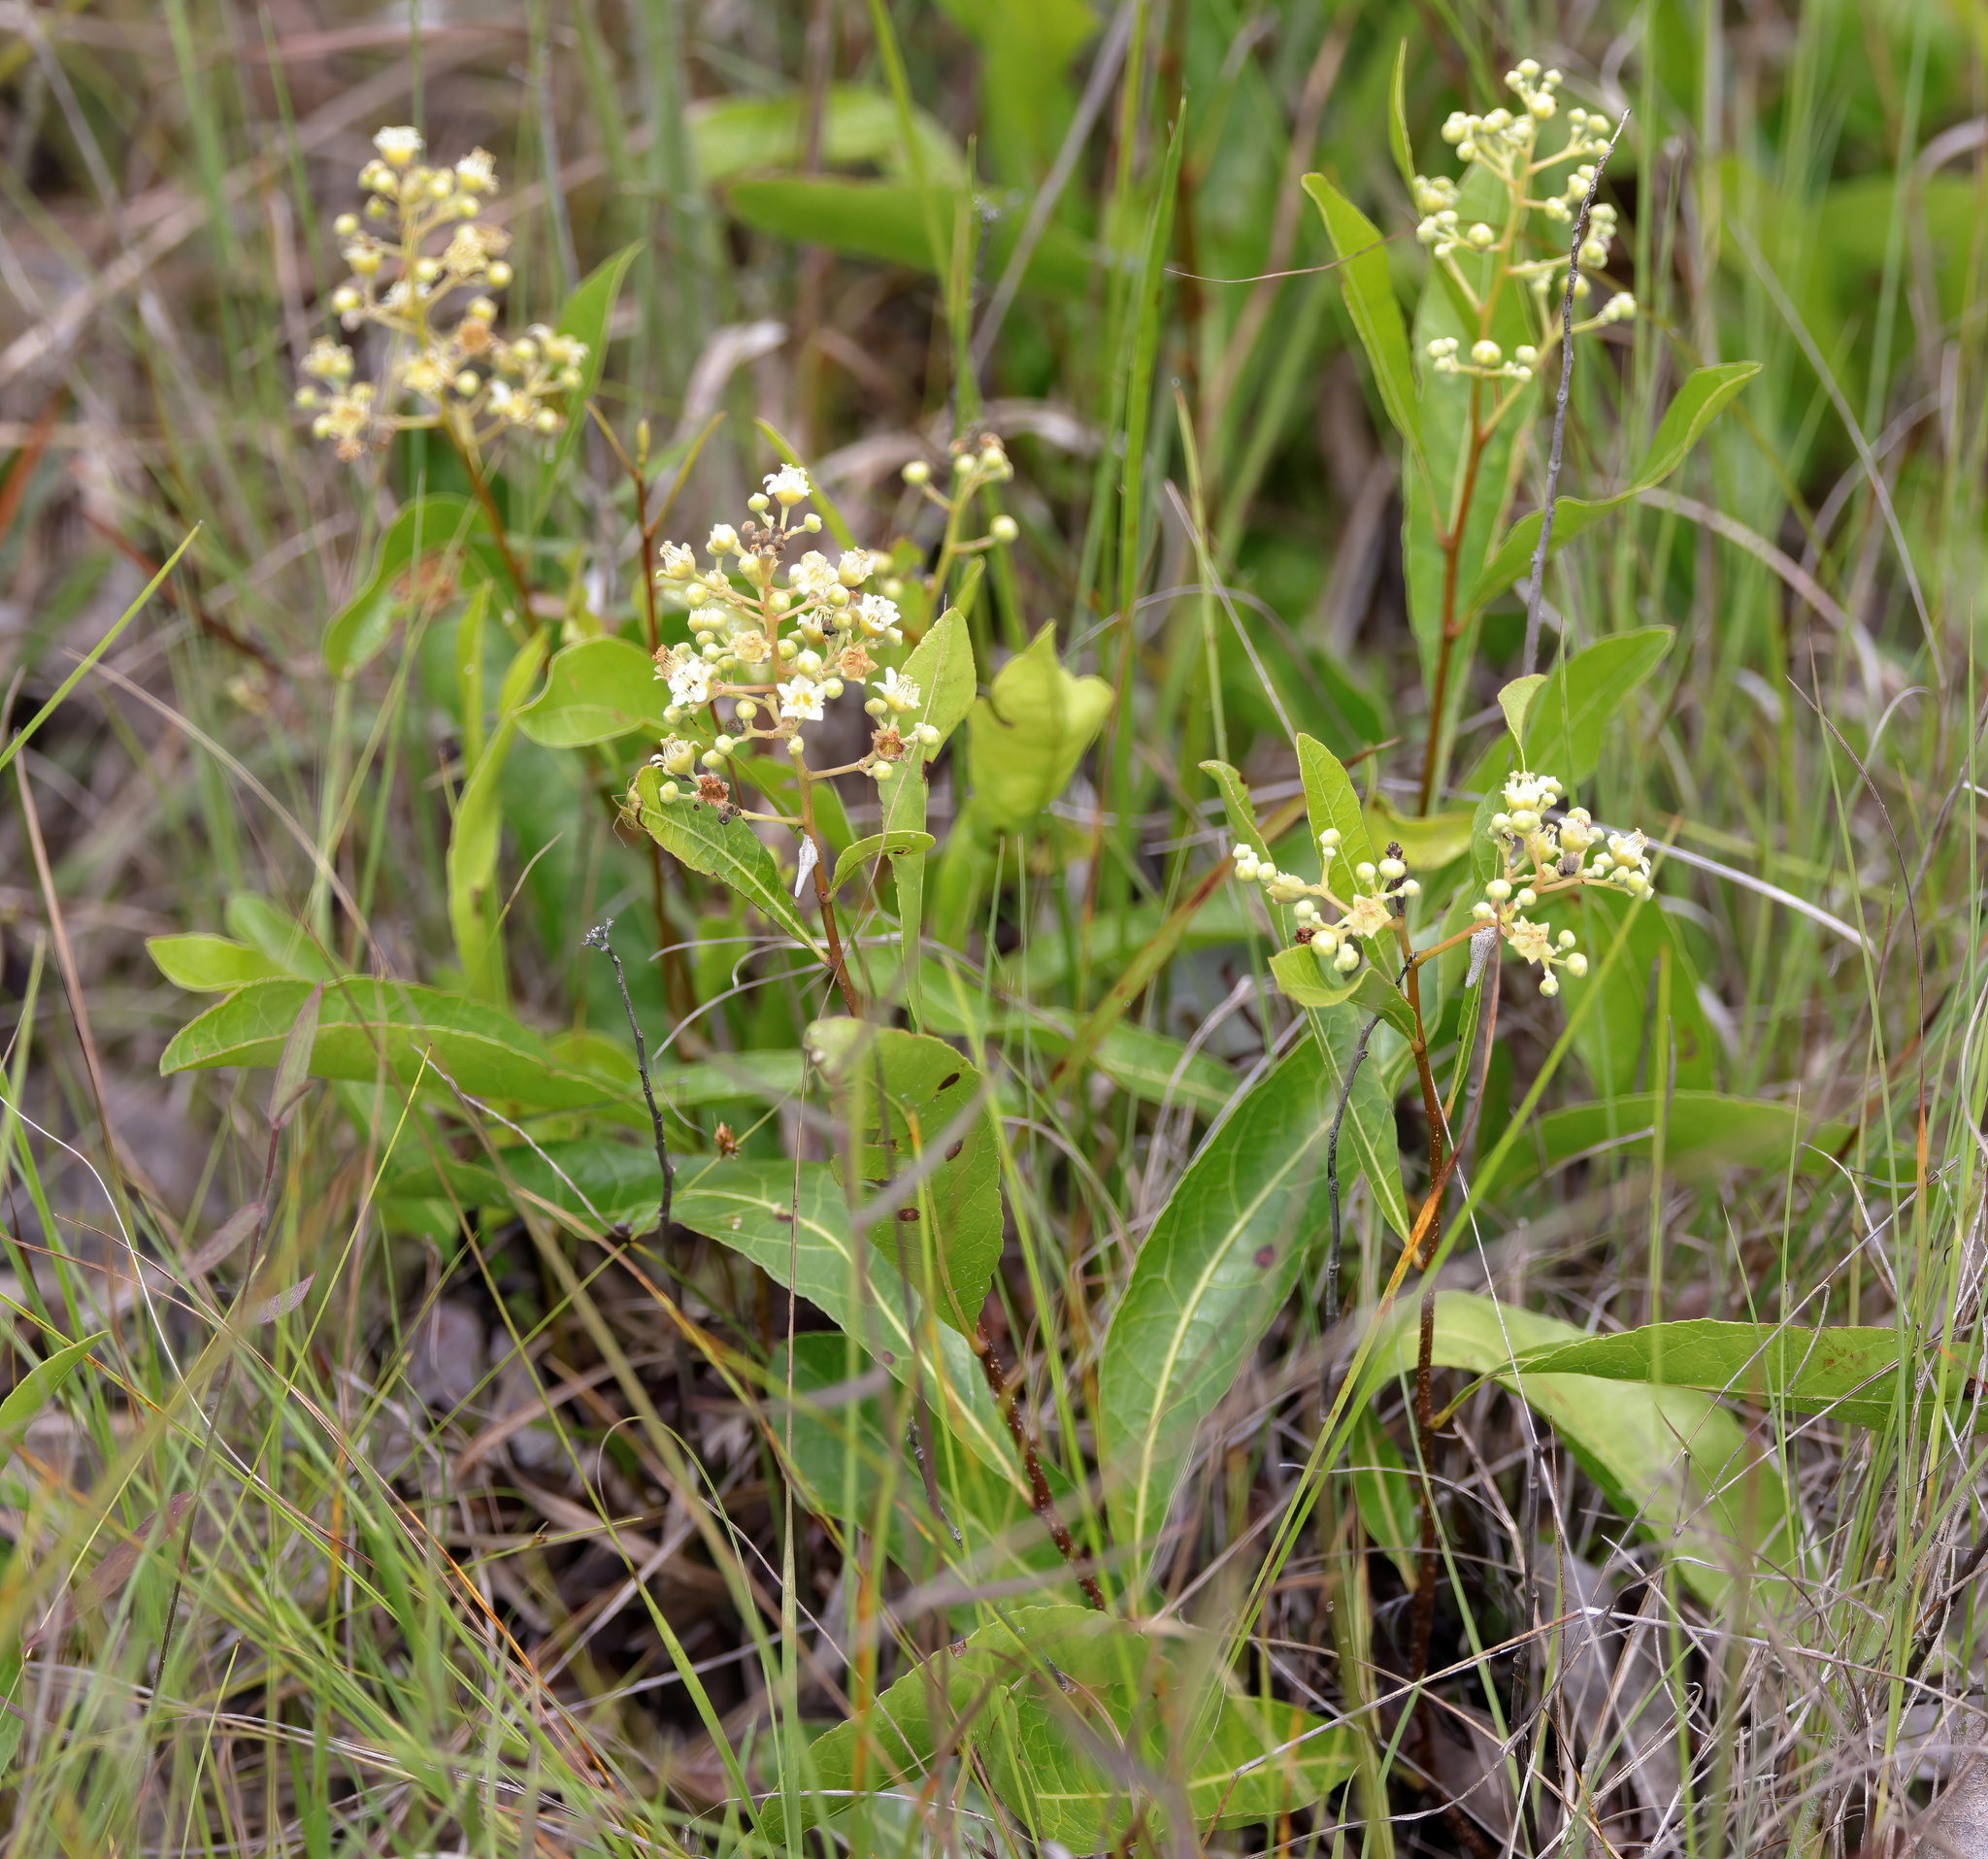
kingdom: Plantae
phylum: Tracheophyta
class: Magnoliopsida
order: Malpighiales
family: Chrysobalanaceae
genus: Geobalanus
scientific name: Geobalanus oblongifolius
